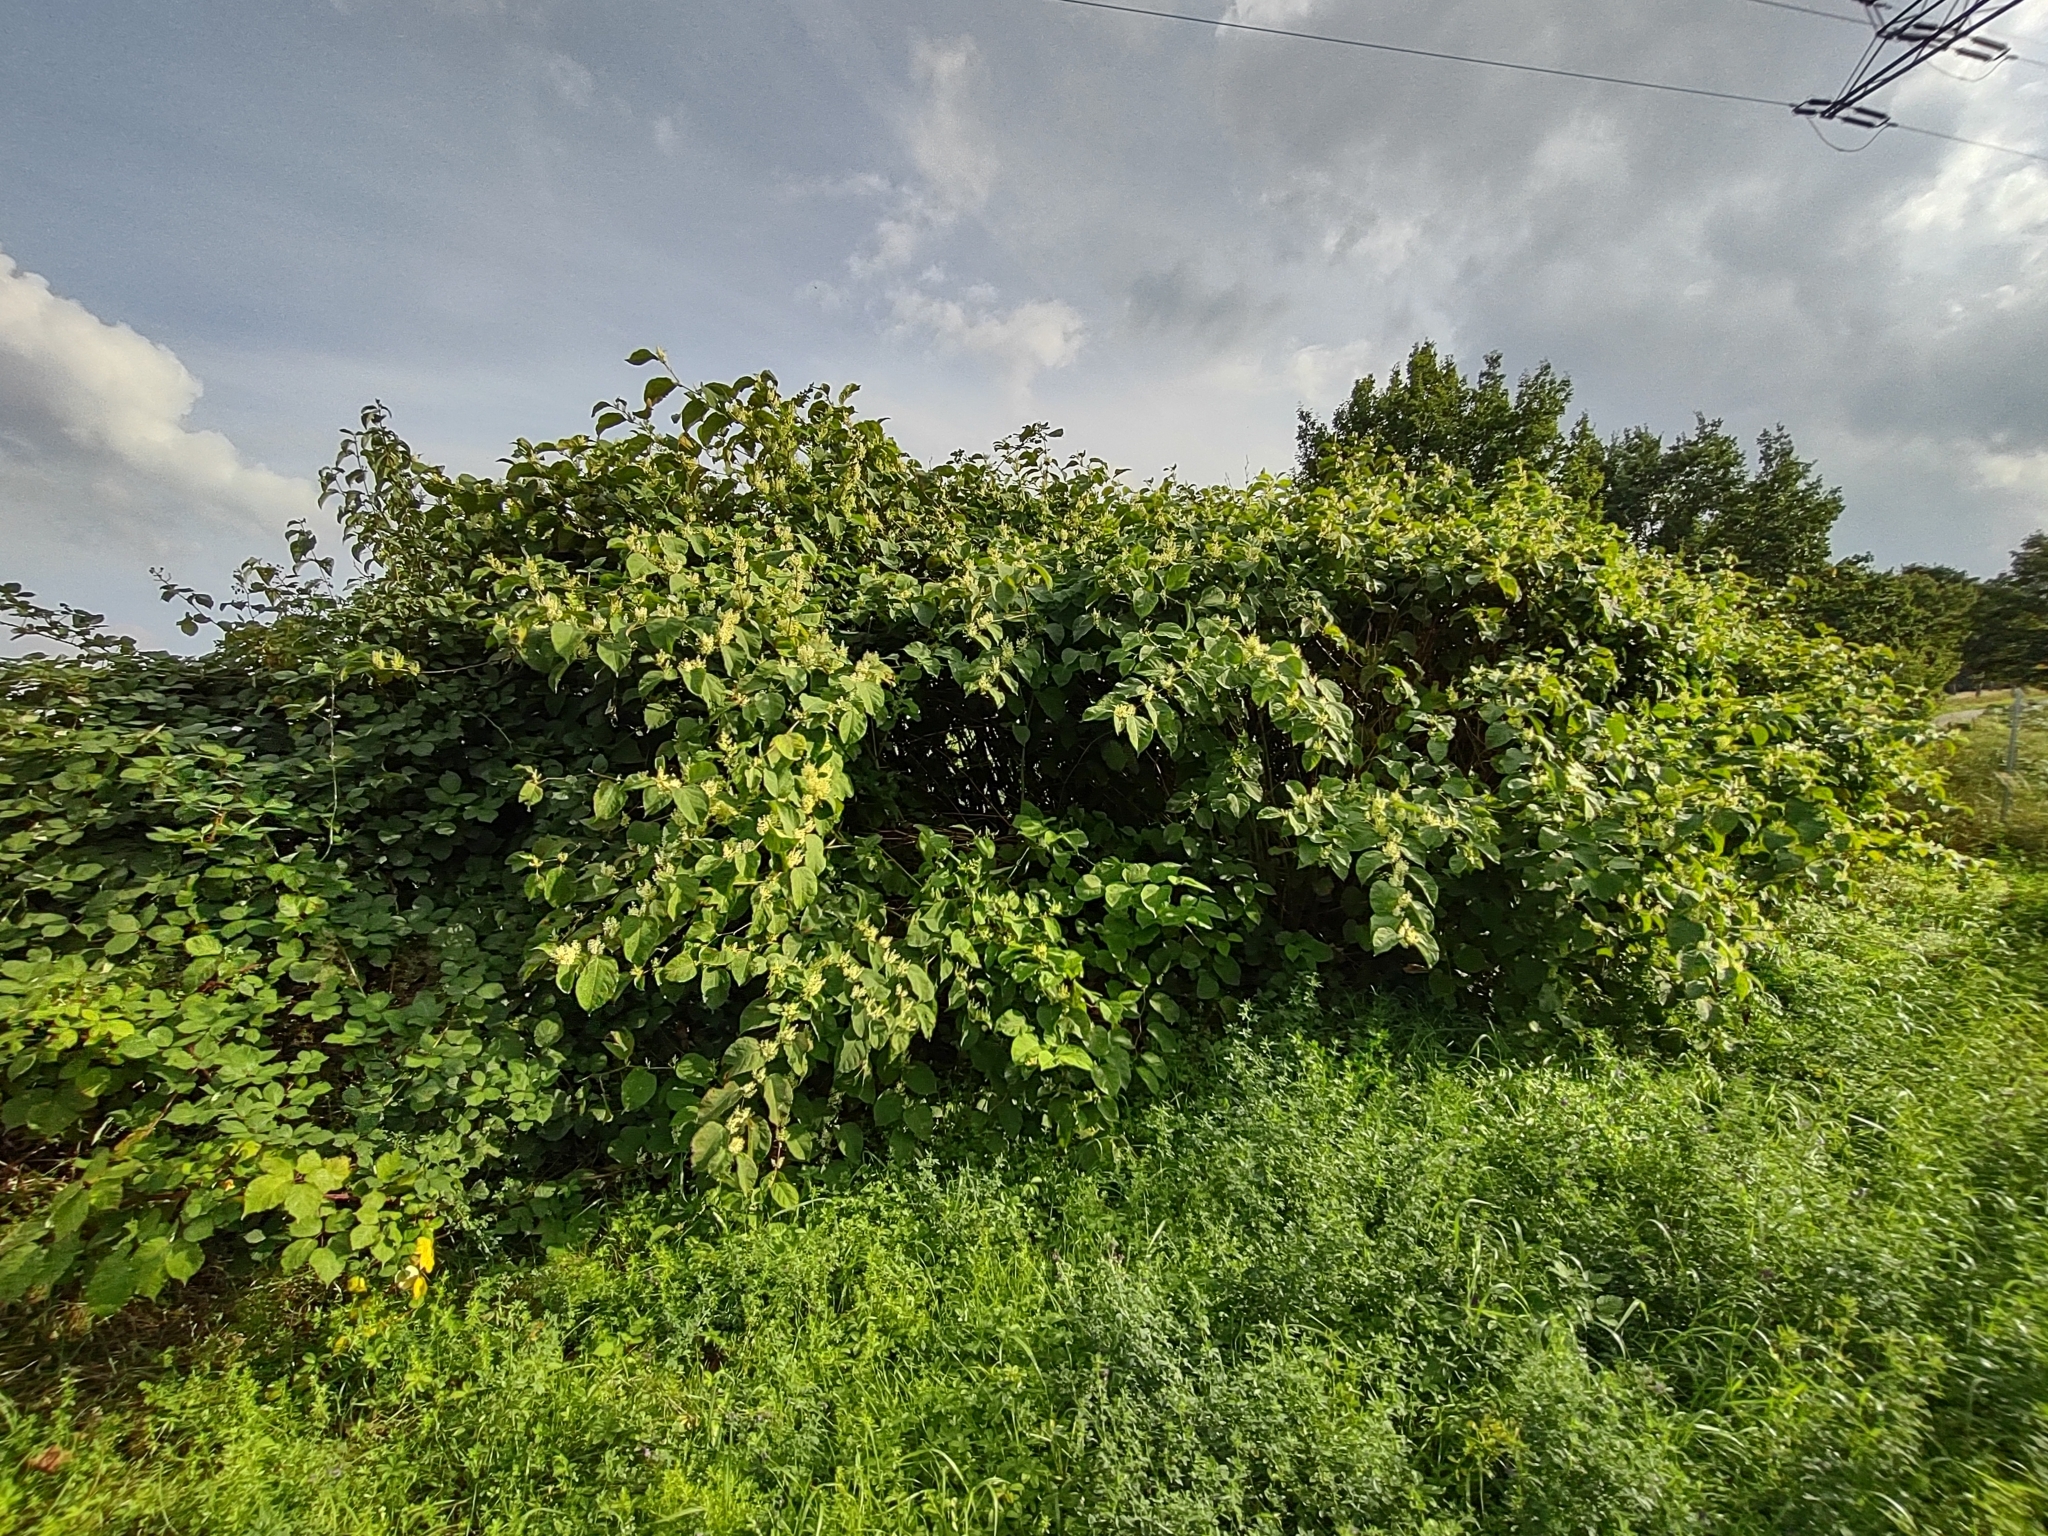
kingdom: Plantae
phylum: Tracheophyta
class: Magnoliopsida
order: Caryophyllales
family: Polygonaceae
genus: Reynoutria
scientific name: Reynoutria bohemica
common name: Bohemian knotweed
